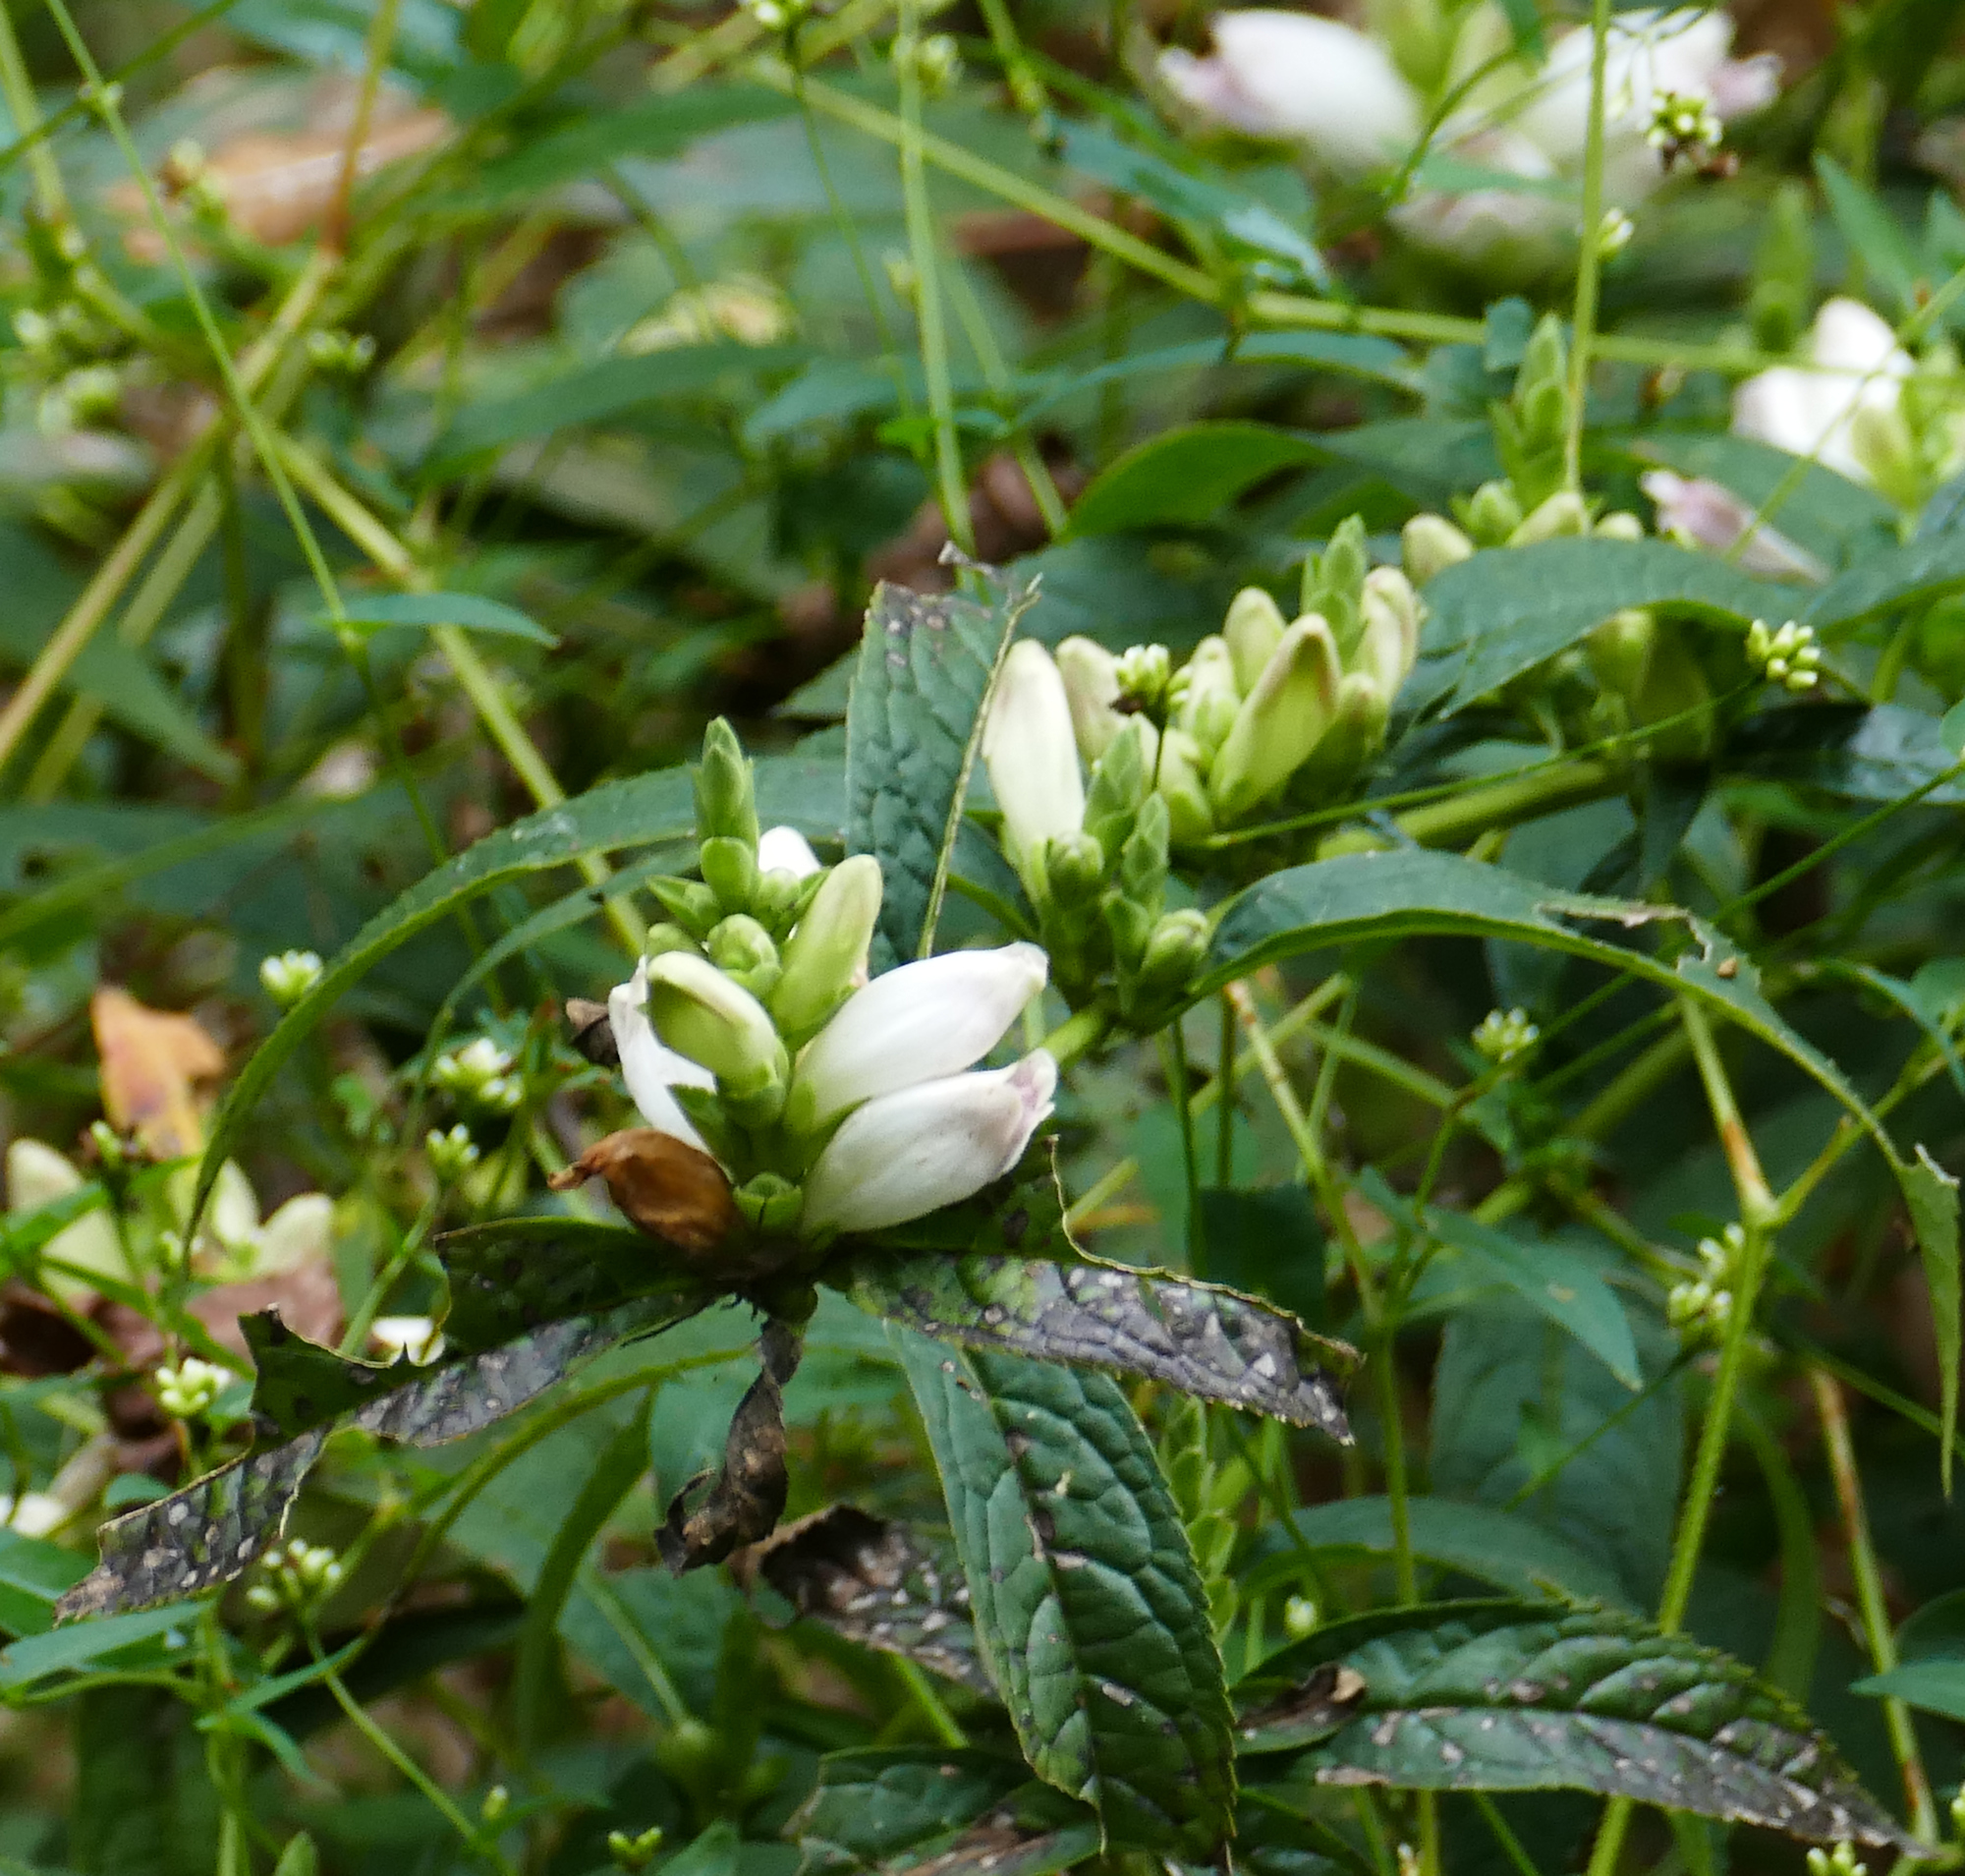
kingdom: Plantae
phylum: Tracheophyta
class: Magnoliopsida
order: Lamiales
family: Plantaginaceae
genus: Chelone
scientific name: Chelone glabra
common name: Snakehead
